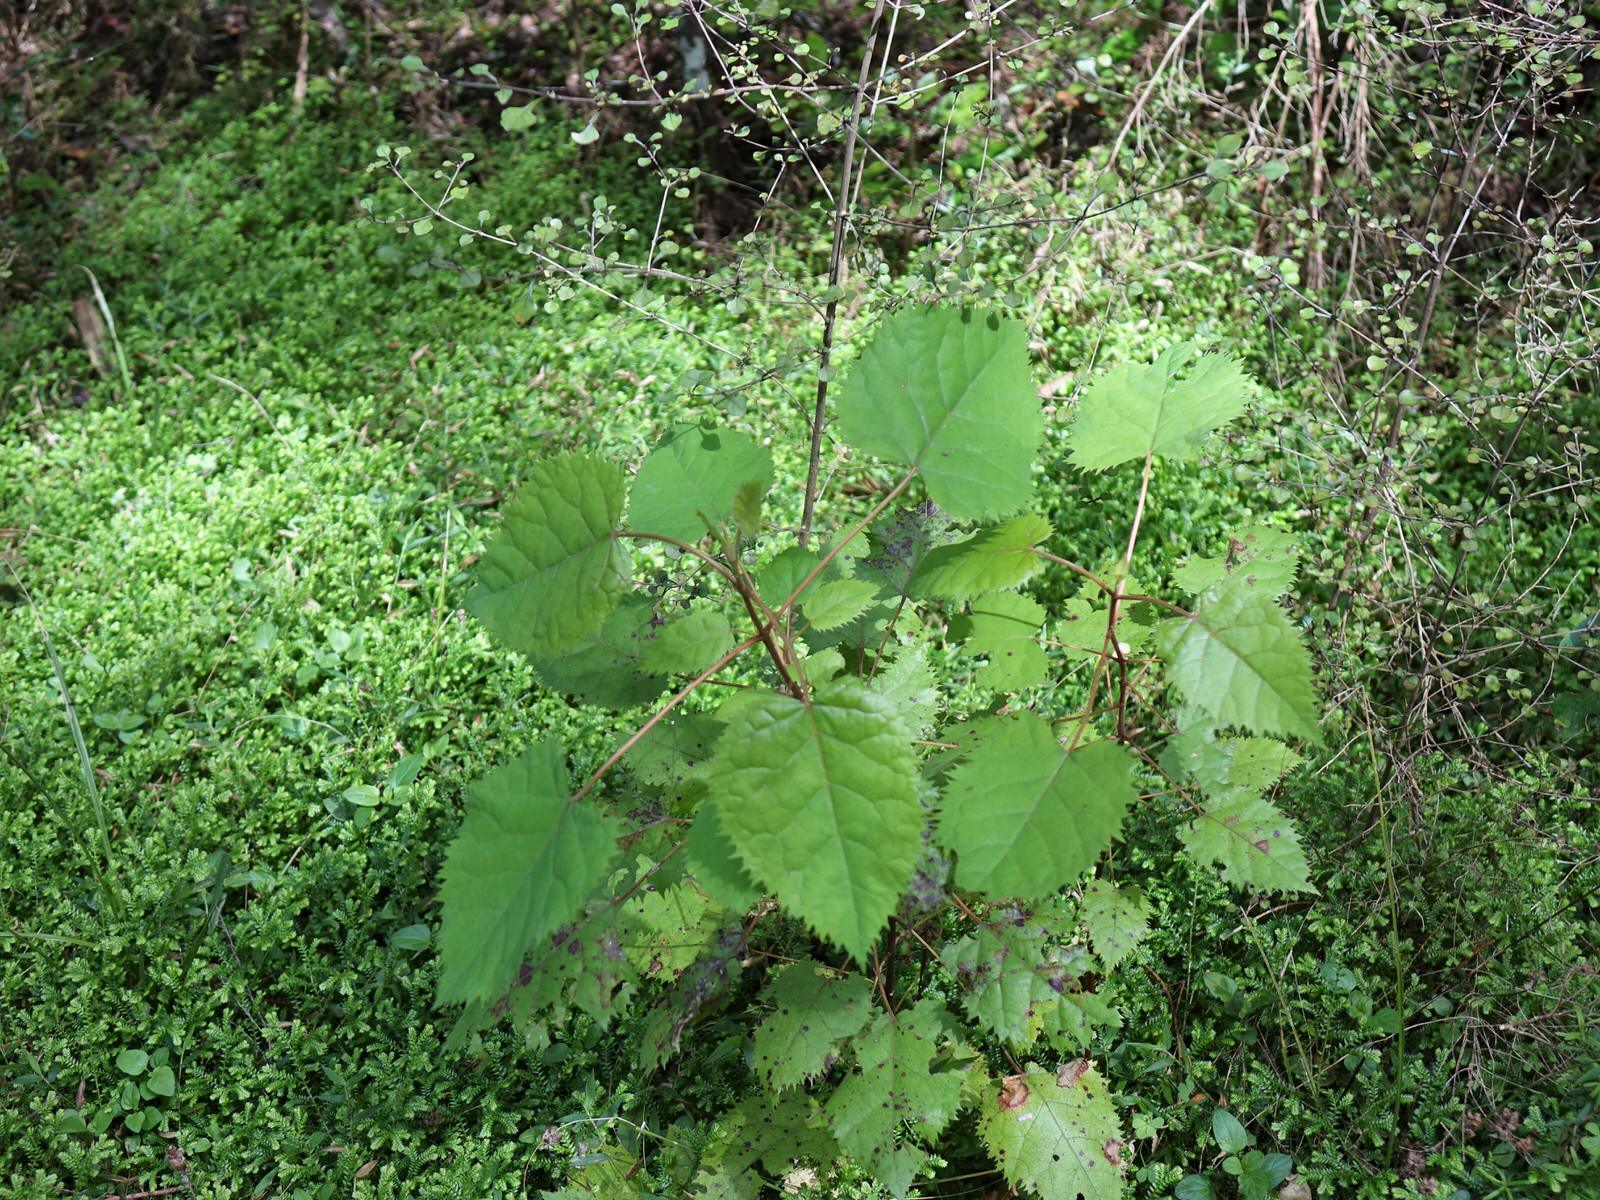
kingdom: Plantae
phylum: Tracheophyta
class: Magnoliopsida
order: Oxalidales
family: Elaeocarpaceae
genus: Aristotelia
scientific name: Aristotelia serrata
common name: New zealand wineberry
